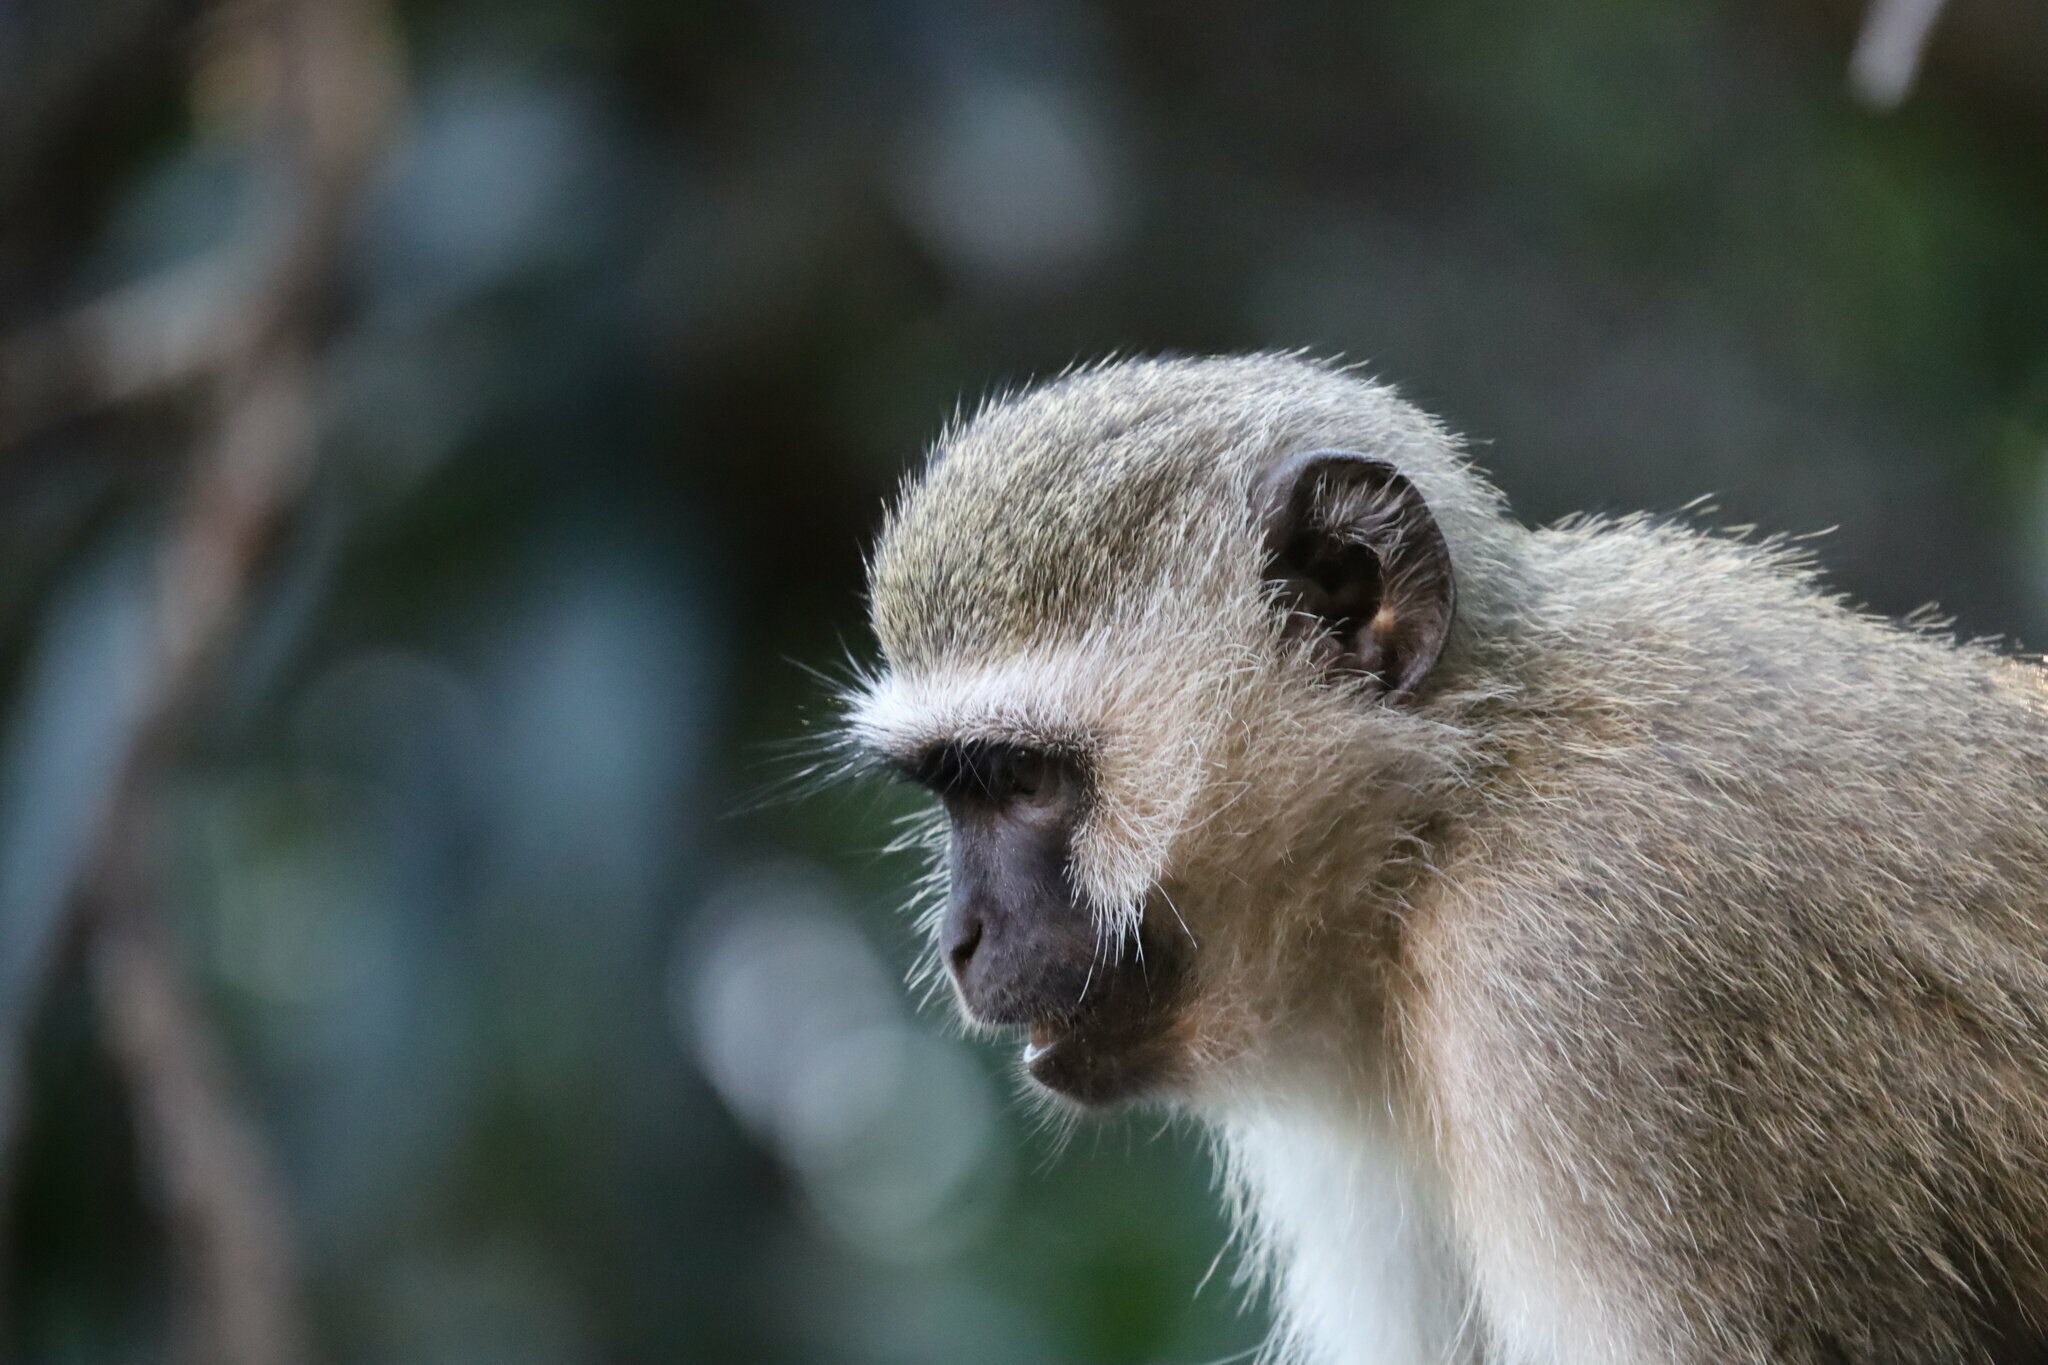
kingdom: Animalia
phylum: Chordata
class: Mammalia
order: Primates
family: Cercopithecidae
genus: Chlorocebus
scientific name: Chlorocebus pygerythrus
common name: Vervet monkey
